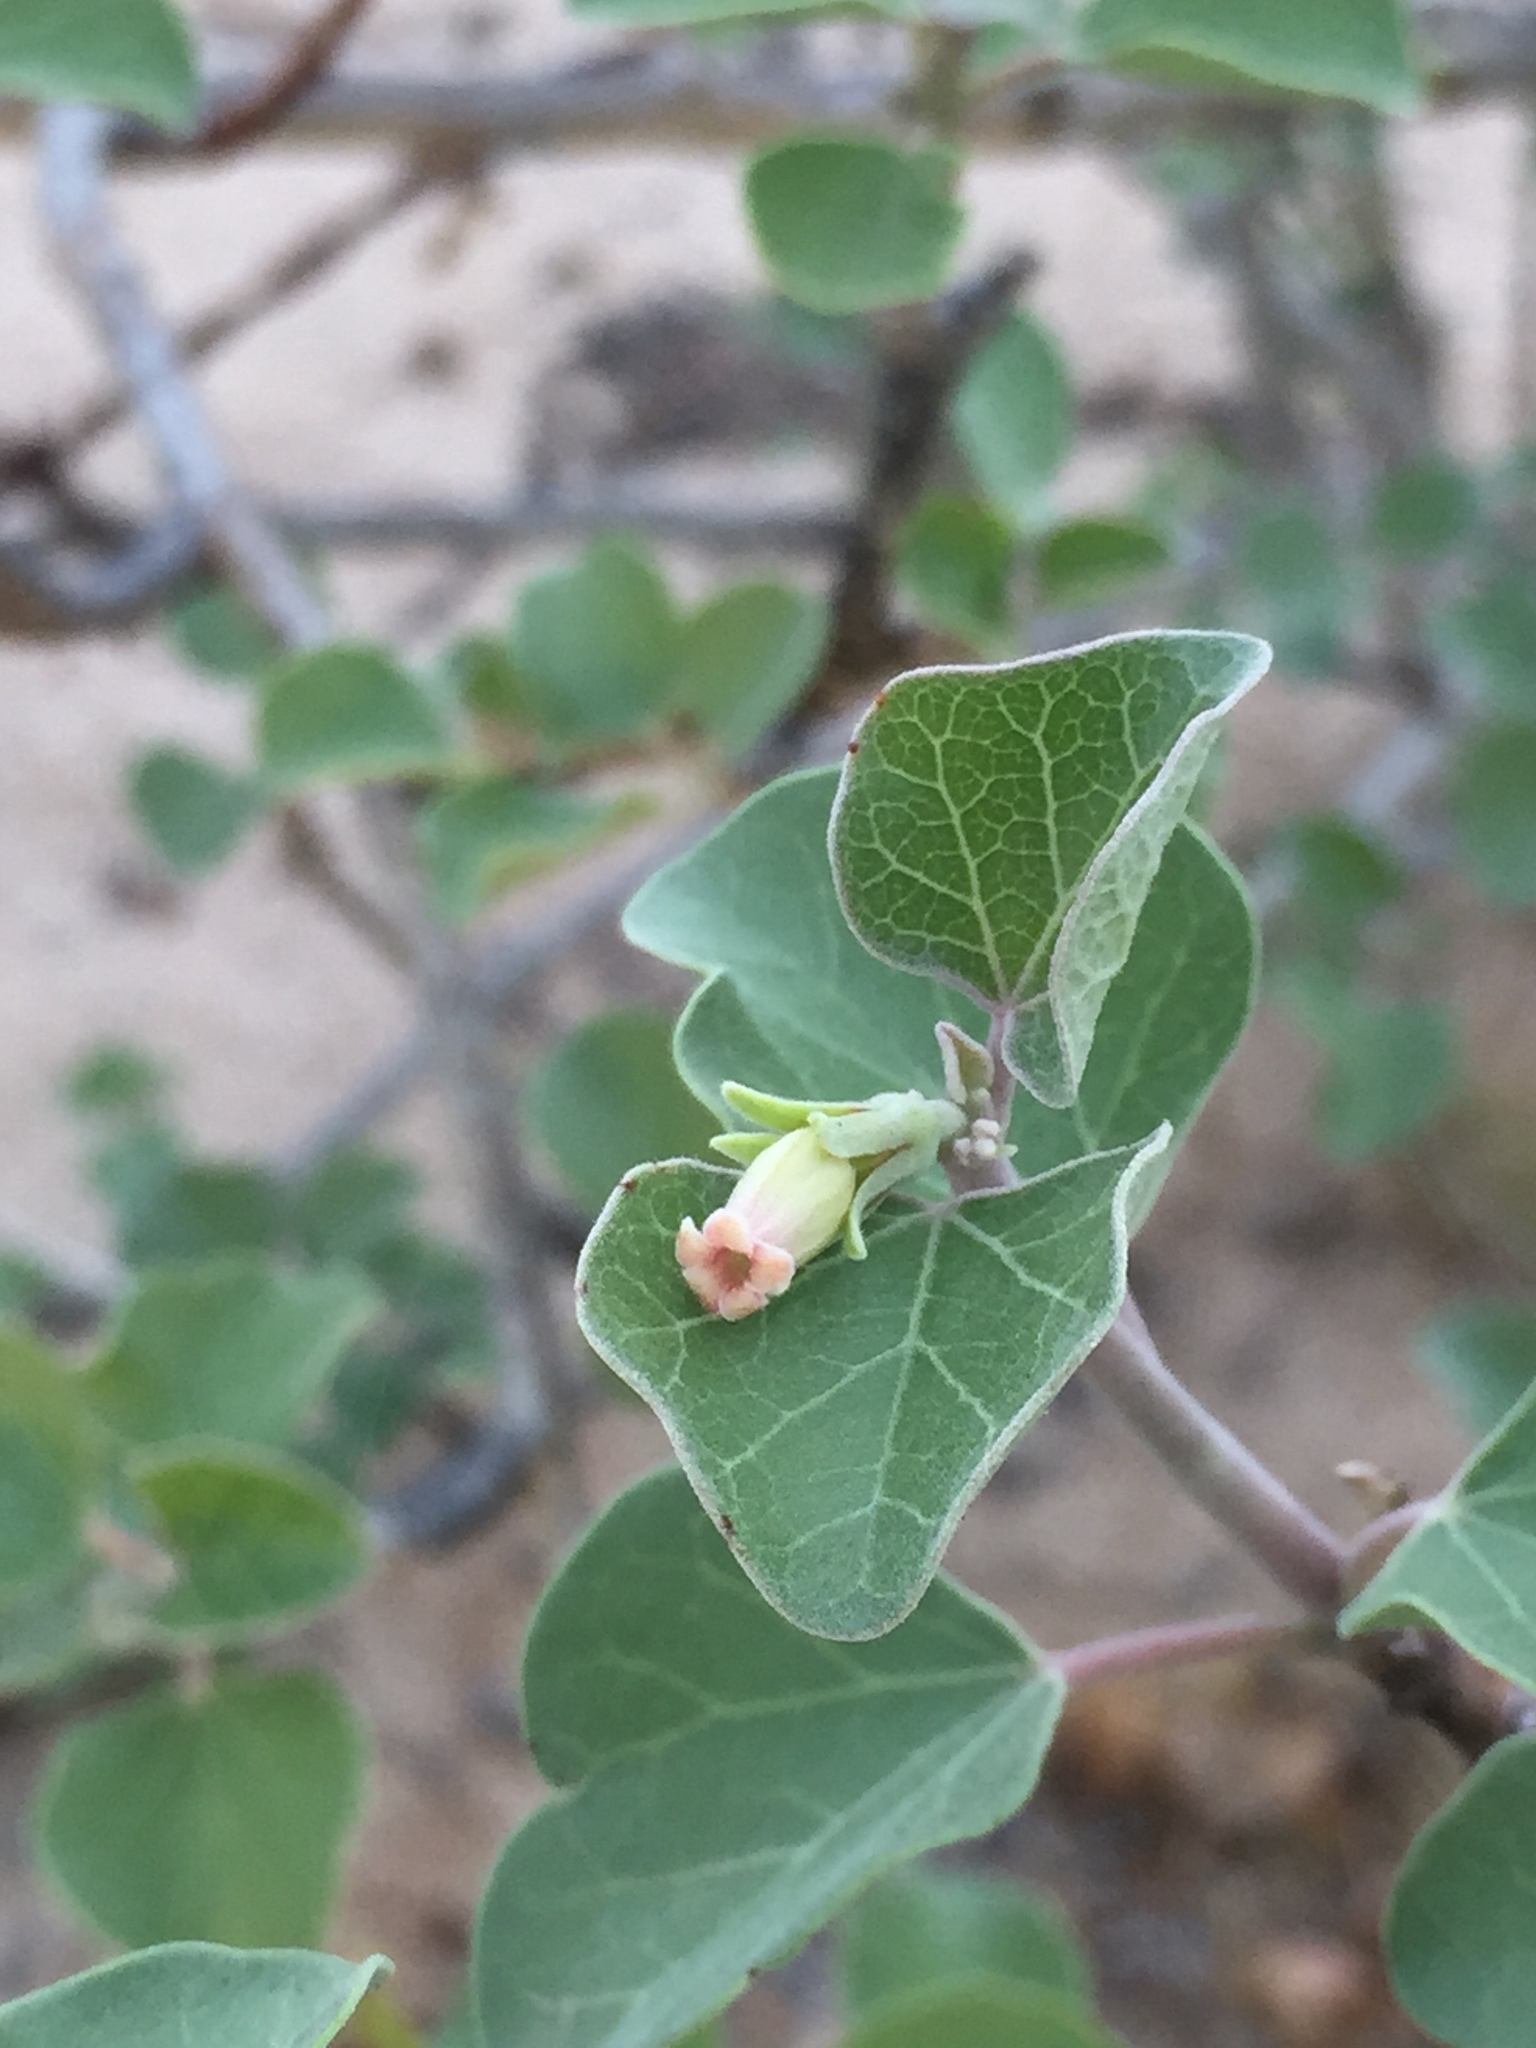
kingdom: Plantae
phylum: Tracheophyta
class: Magnoliopsida
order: Malpighiales
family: Euphorbiaceae
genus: Jatropha
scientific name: Jatropha cinerea
